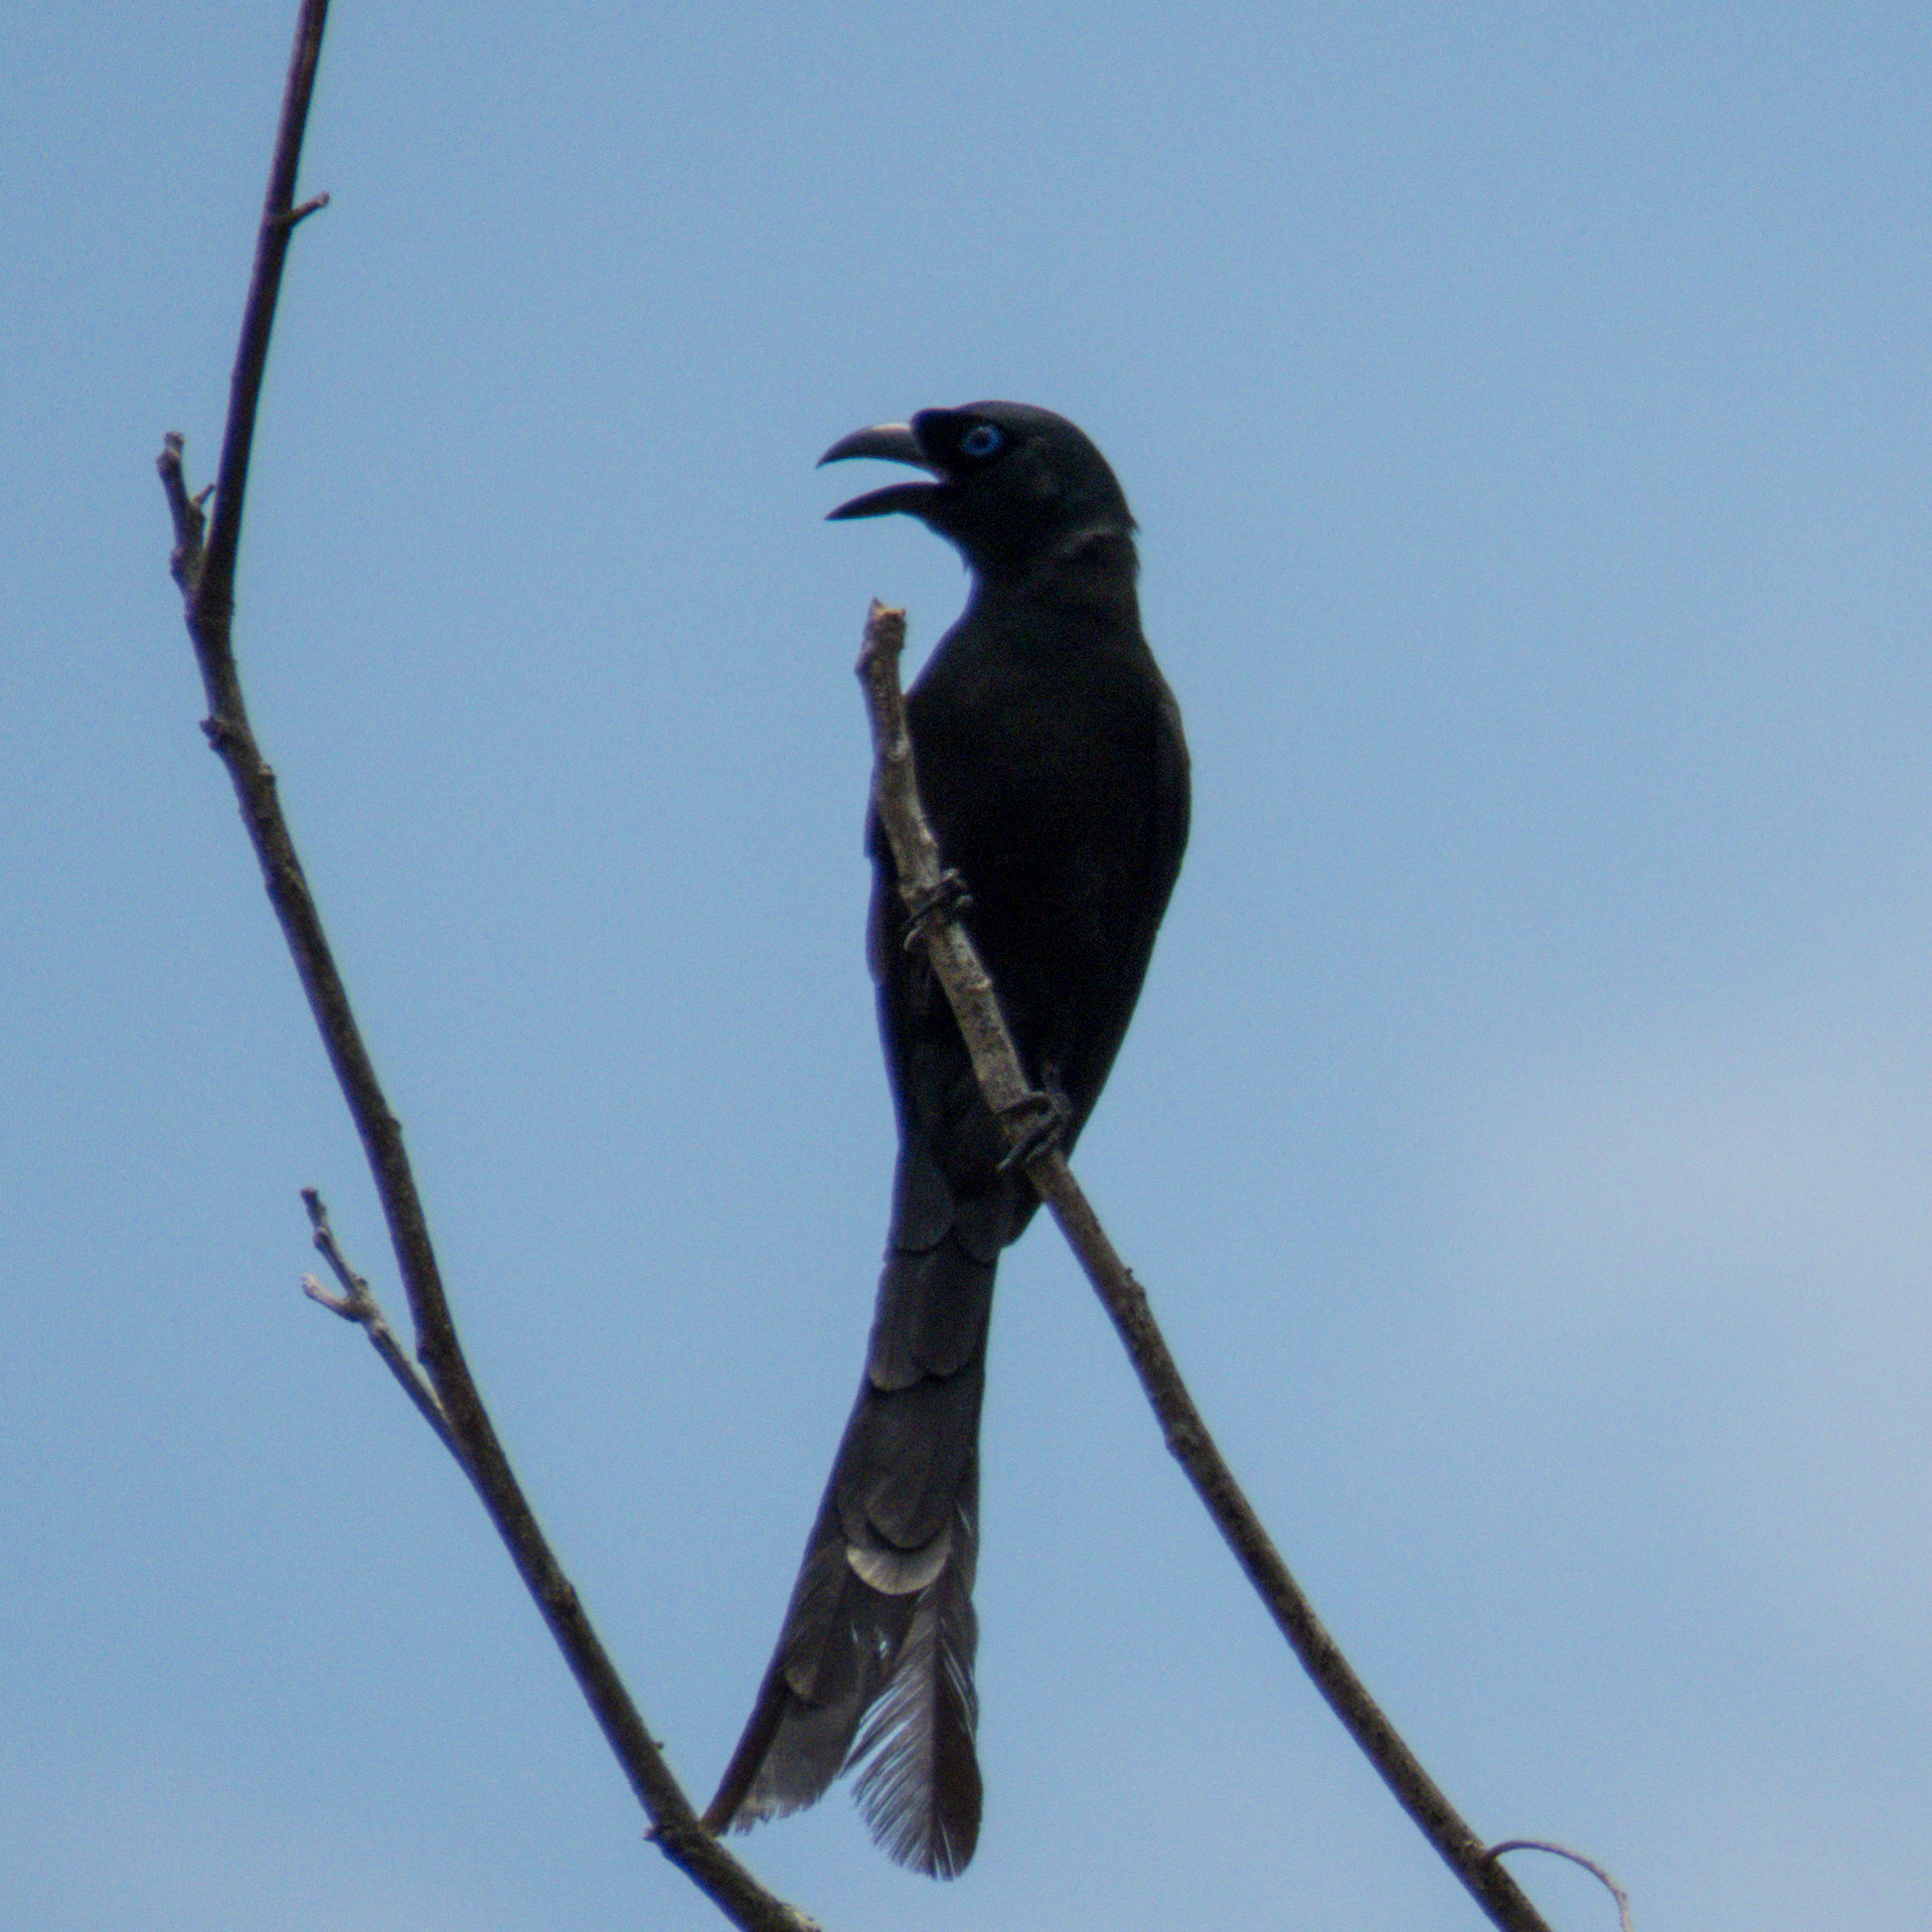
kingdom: Animalia
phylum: Chordata
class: Aves
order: Passeriformes
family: Corvidae
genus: Crypsirina
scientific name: Crypsirina temia
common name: Racket-tailed treepie
